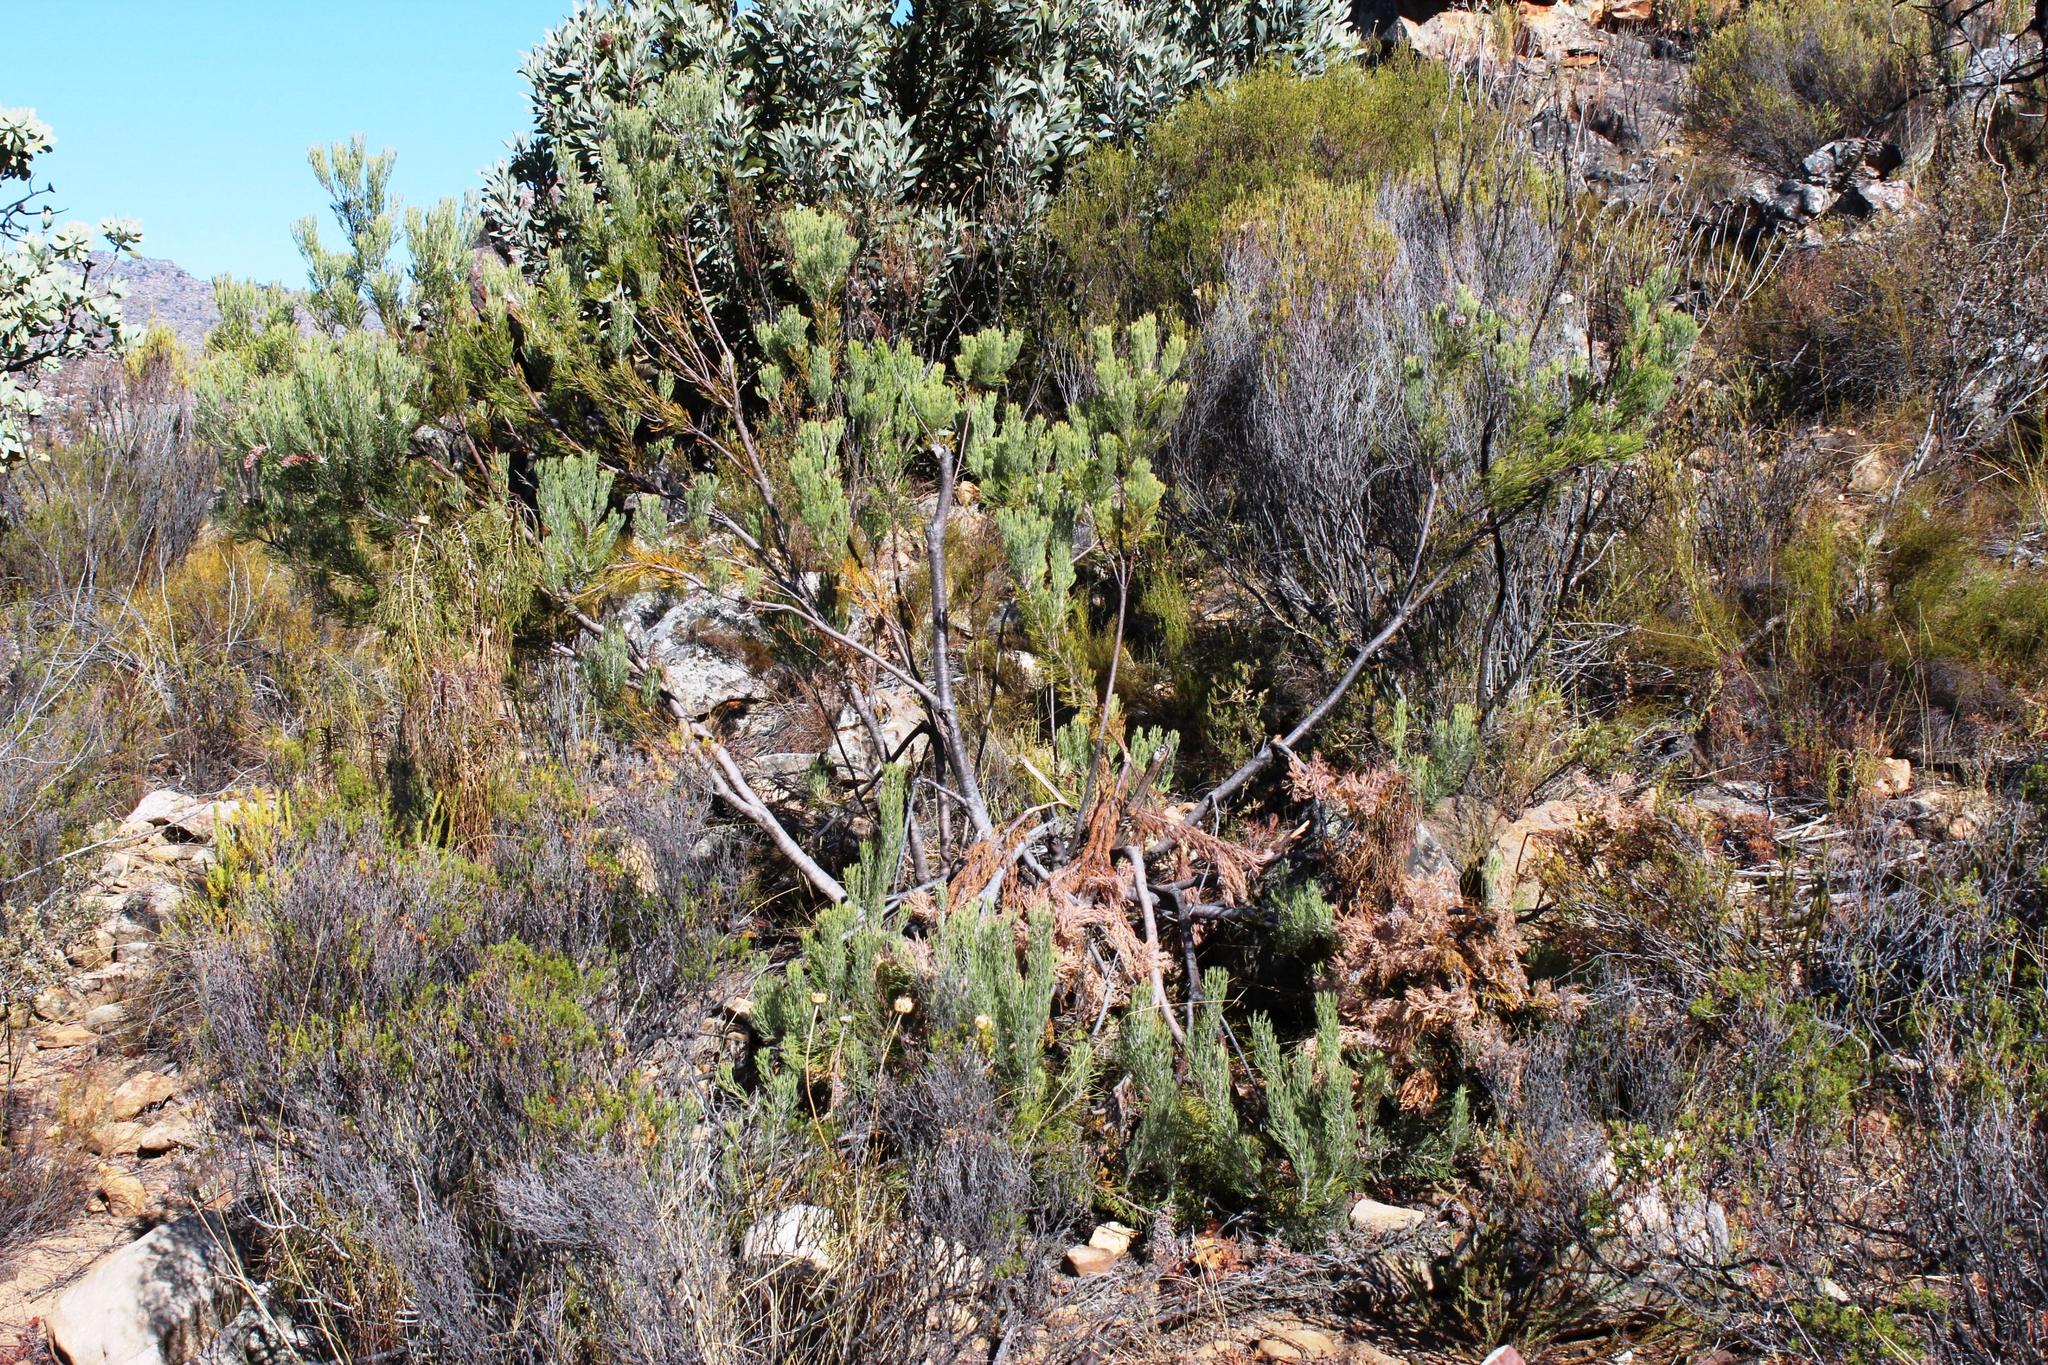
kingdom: Plantae
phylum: Tracheophyta
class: Magnoliopsida
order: Proteales
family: Proteaceae
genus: Paranomus
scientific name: Paranomus bracteolaris
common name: Bokkeveld tree sceptre
